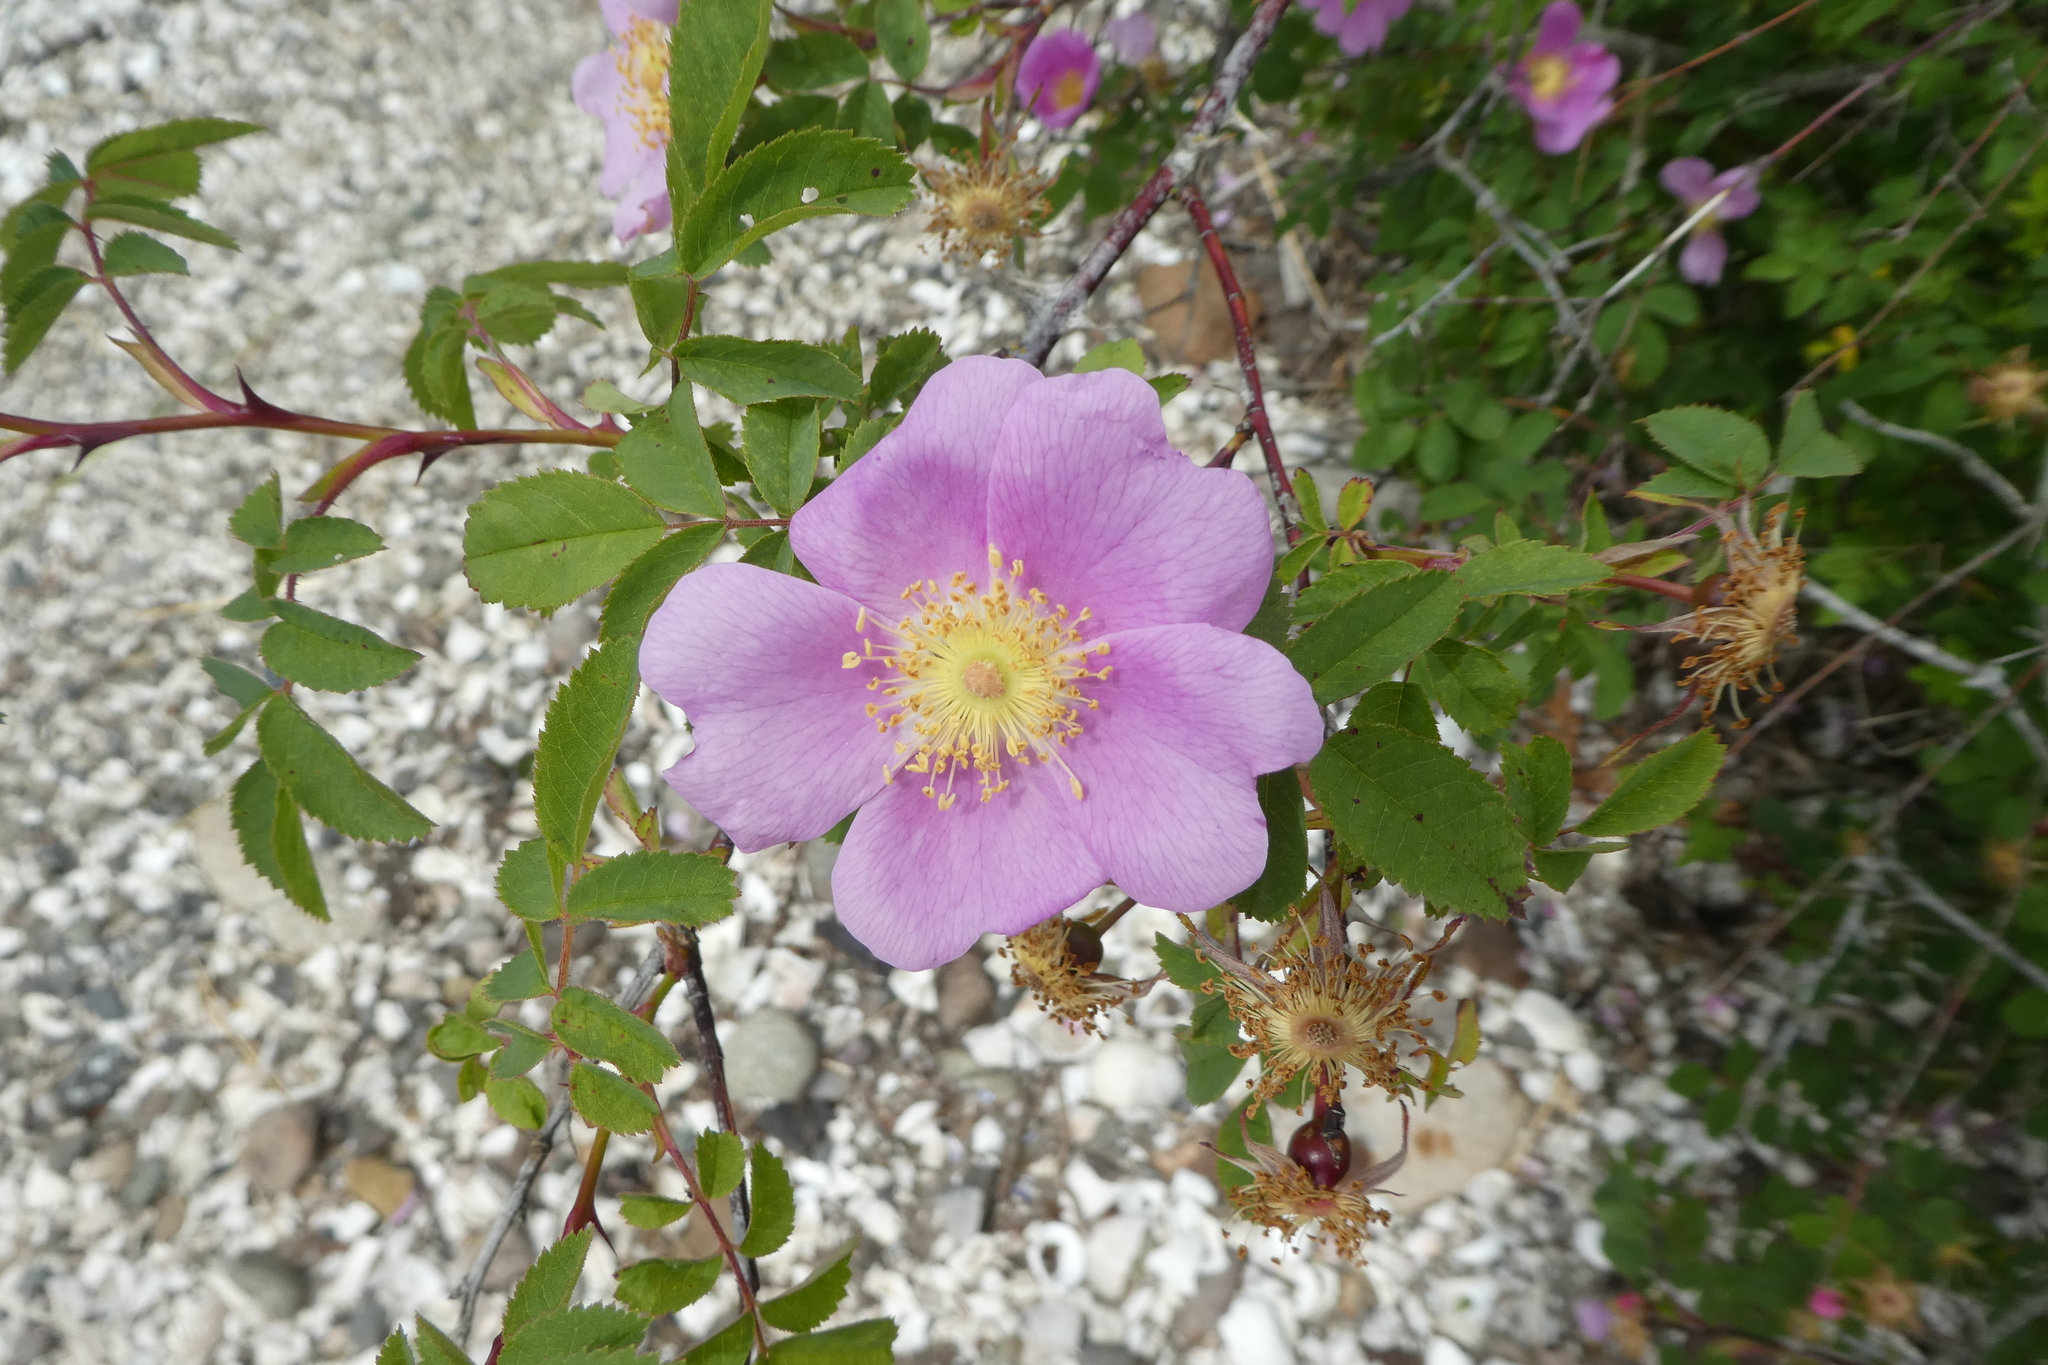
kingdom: Plantae
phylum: Tracheophyta
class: Magnoliopsida
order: Rosales
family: Rosaceae
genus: Rosa
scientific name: Rosa nutkana
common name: Nootka rose
